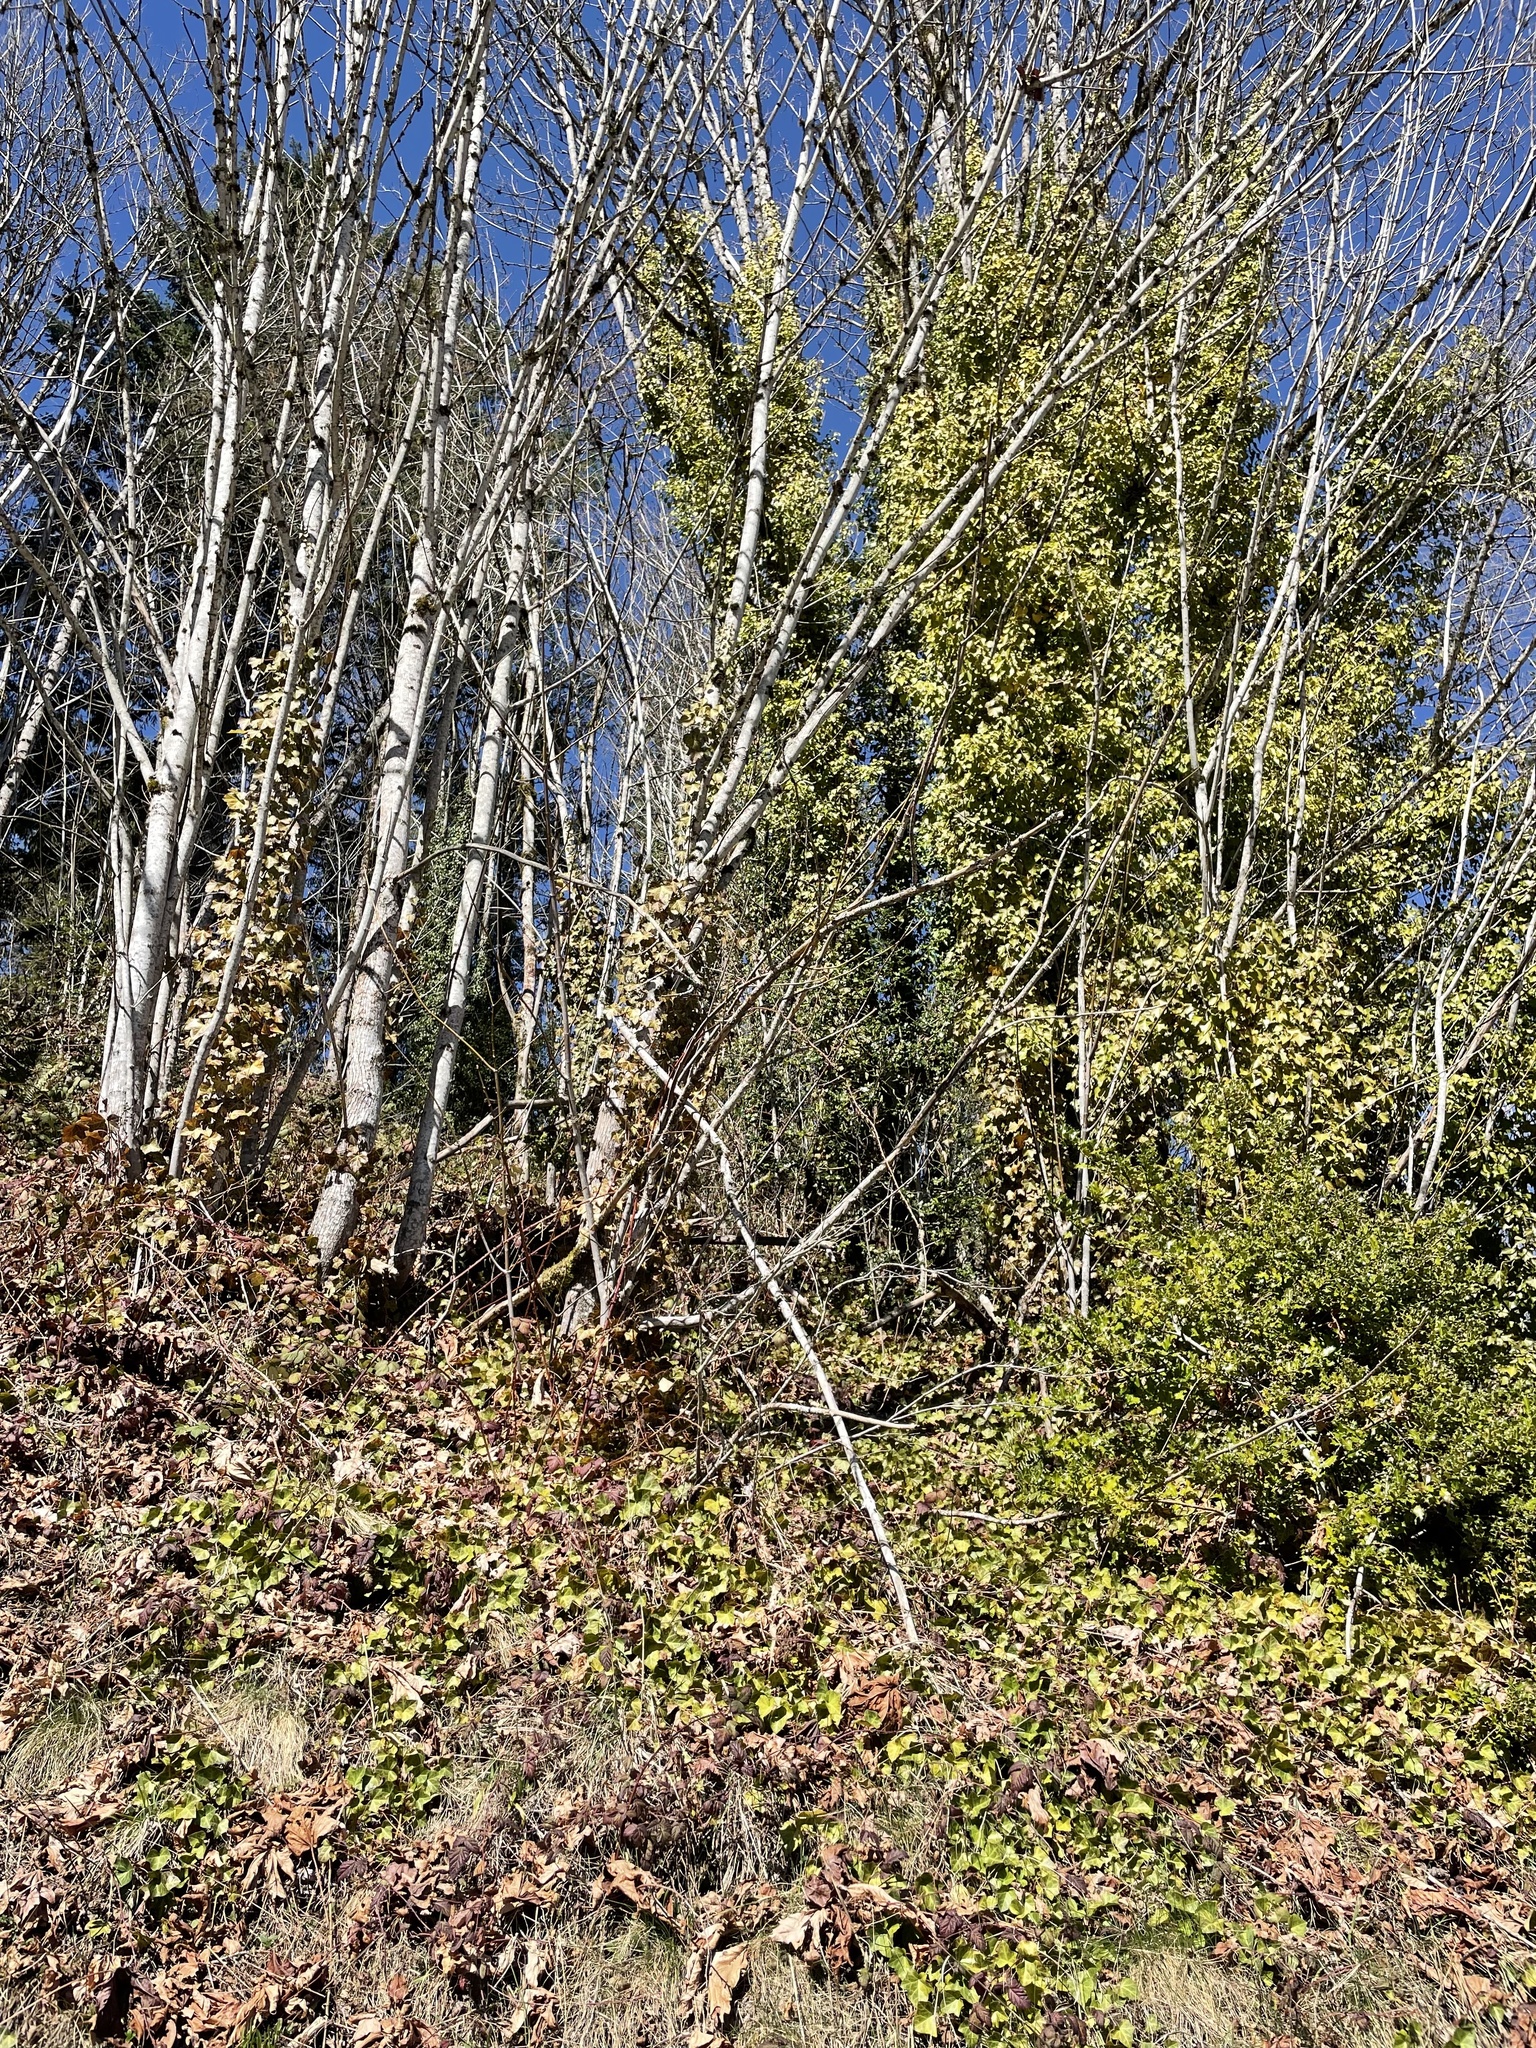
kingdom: Plantae
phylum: Tracheophyta
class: Magnoliopsida
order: Apiales
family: Araliaceae
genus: Hedera
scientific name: Hedera hibernica
